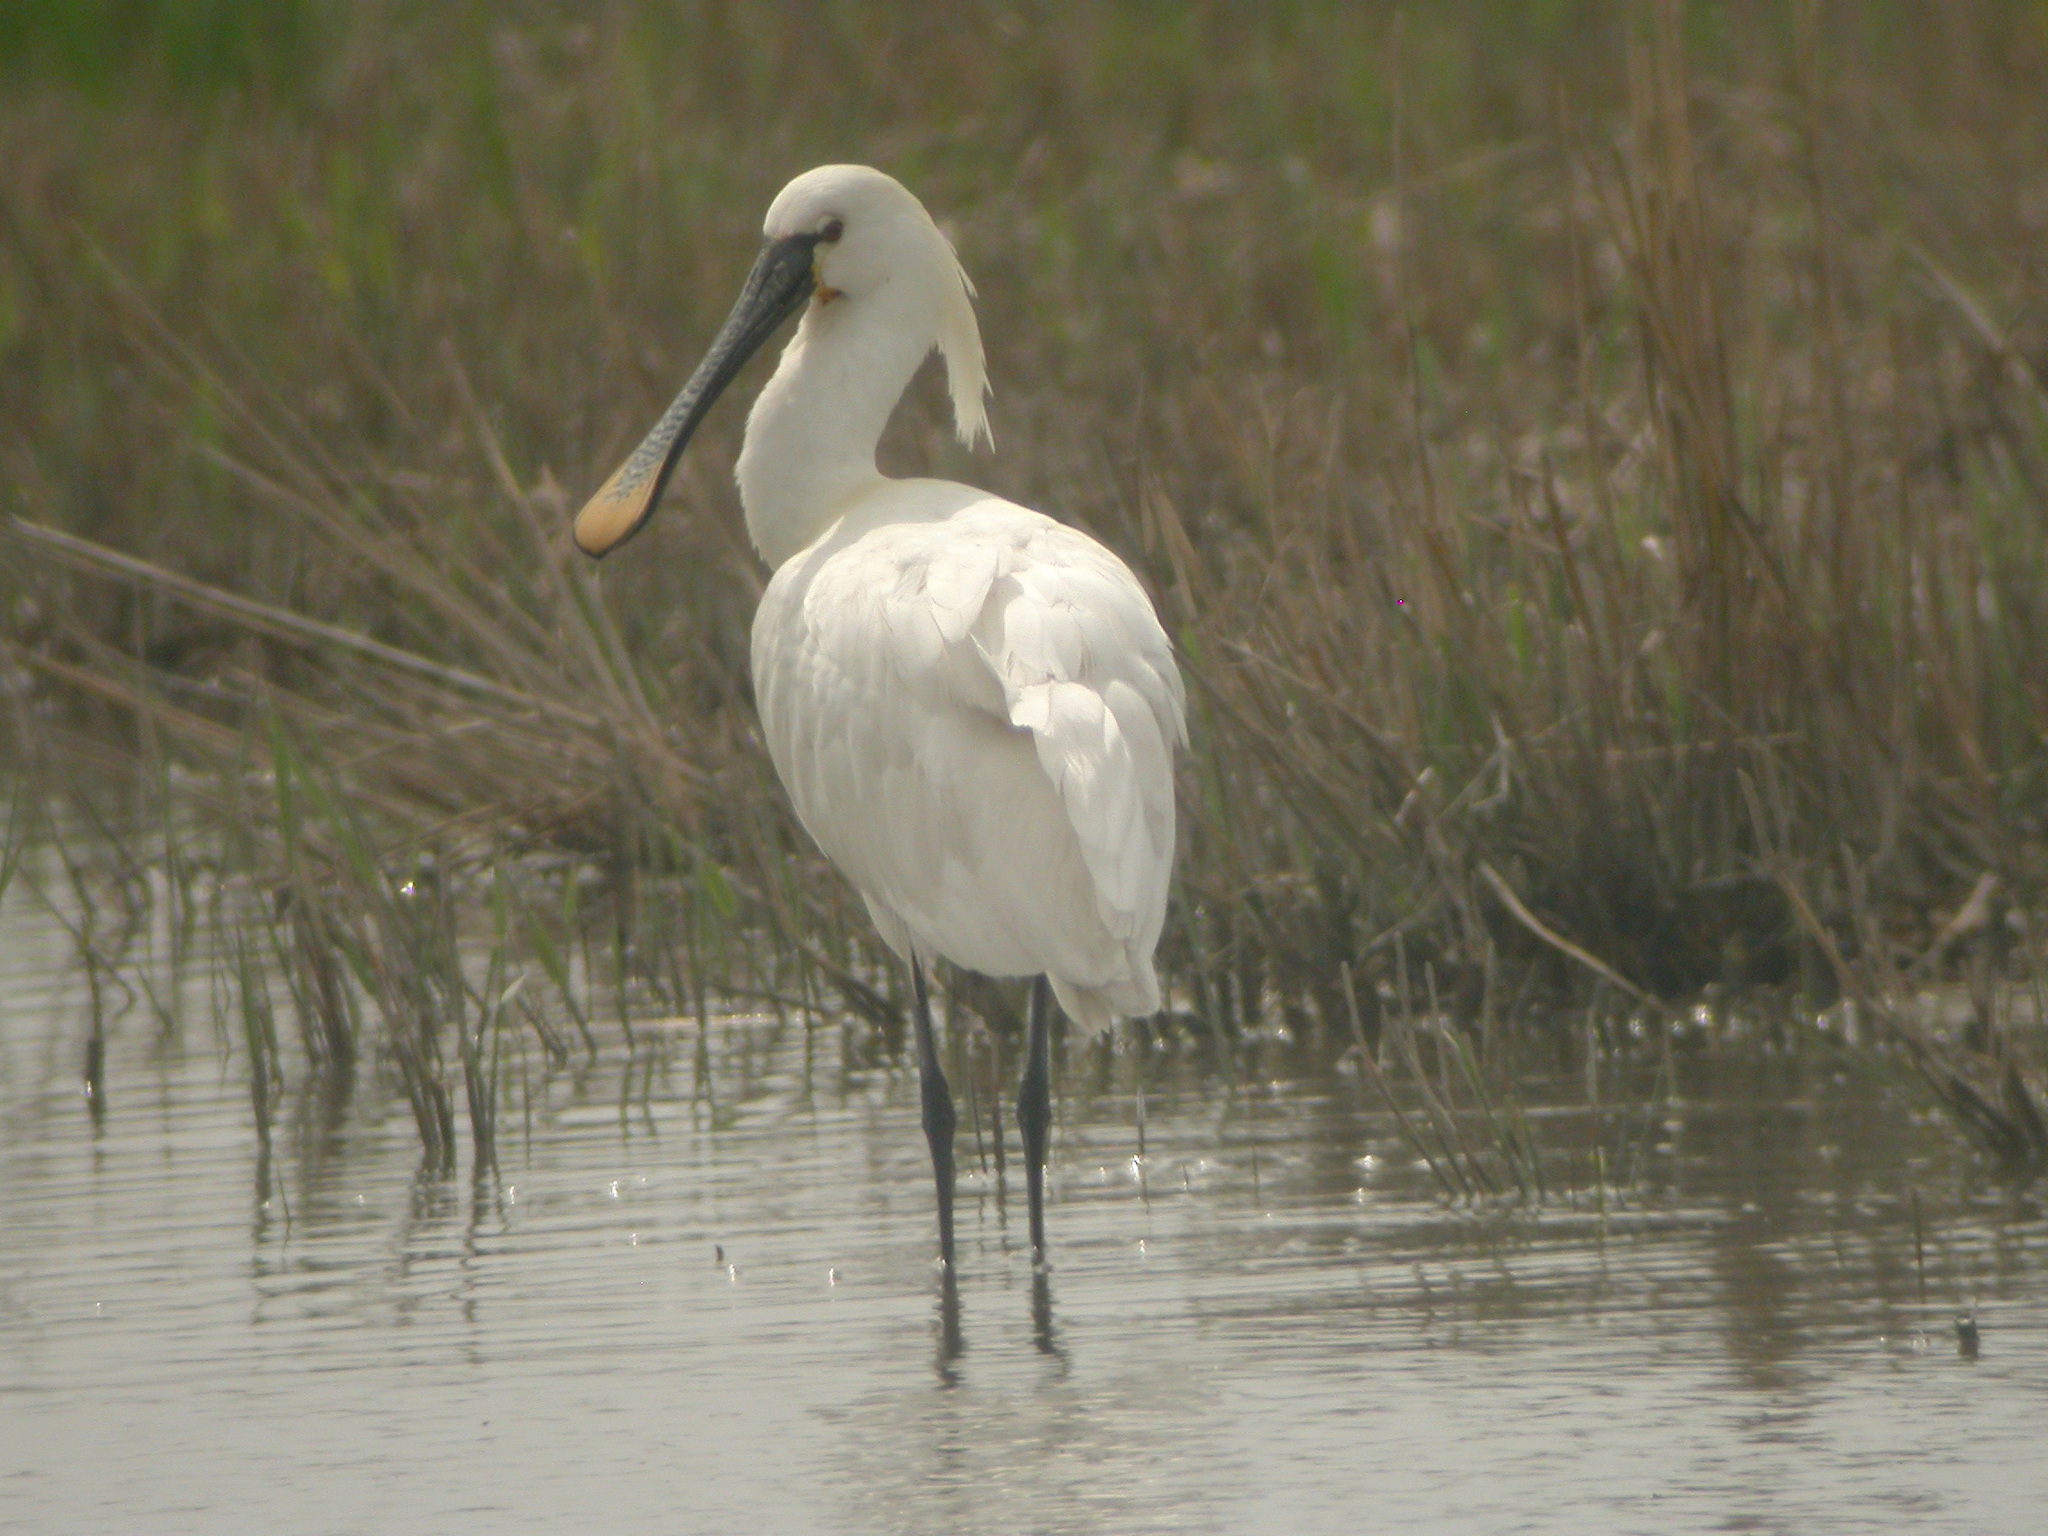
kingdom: Animalia
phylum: Chordata
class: Aves
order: Pelecaniformes
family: Threskiornithidae
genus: Platalea
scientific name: Platalea leucorodia
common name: Eurasian spoonbill
